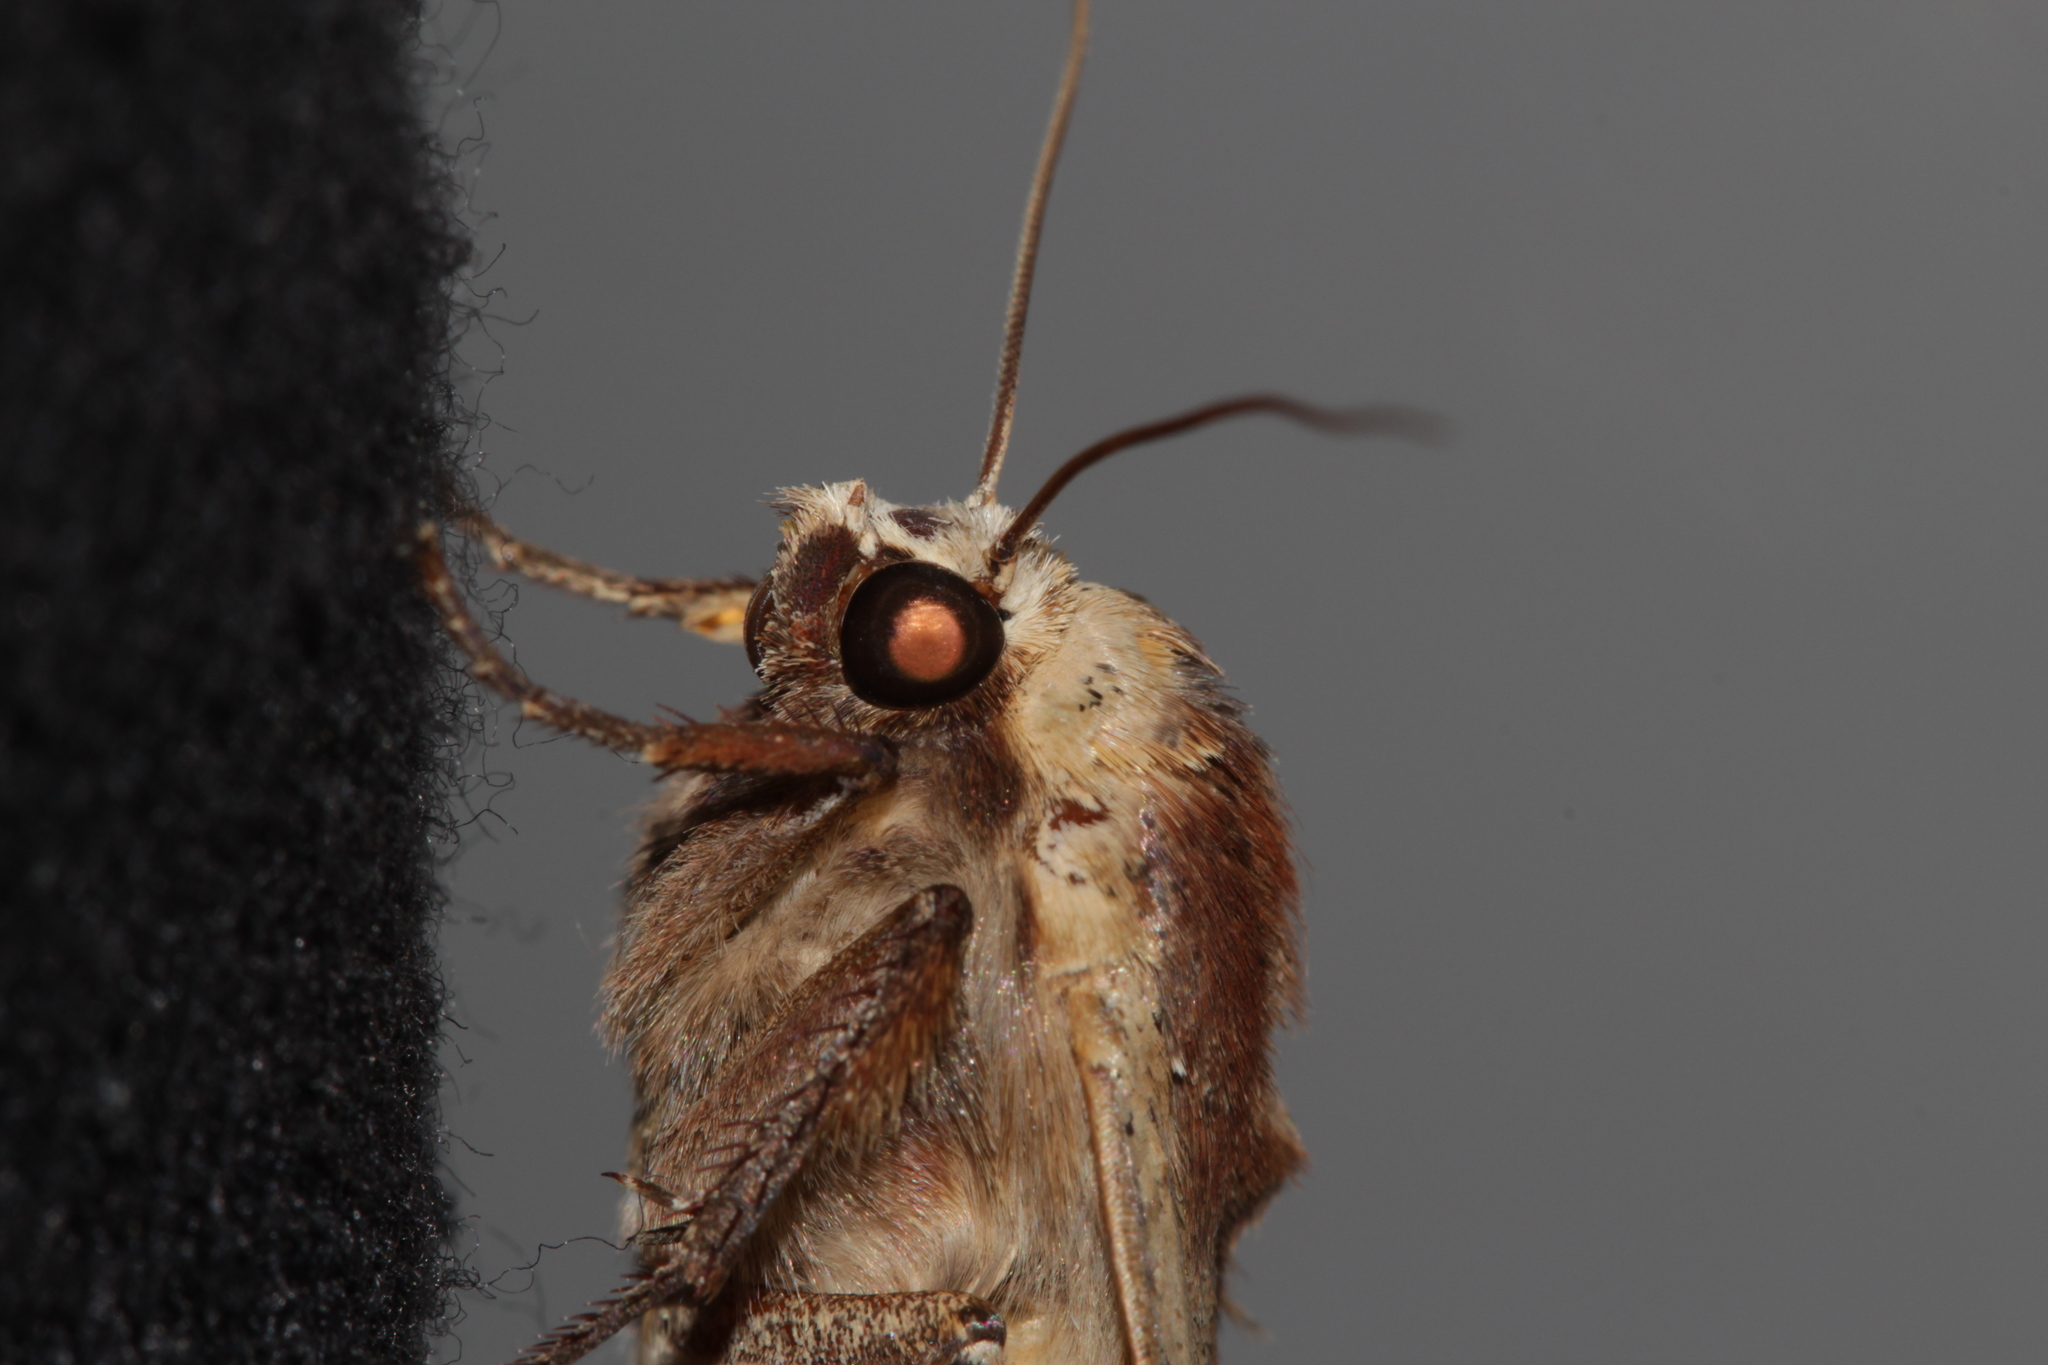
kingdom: Animalia
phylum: Arthropoda
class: Insecta
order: Lepidoptera
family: Noctuidae
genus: Noctua
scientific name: Noctua pronuba
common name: Large yellow underwing
